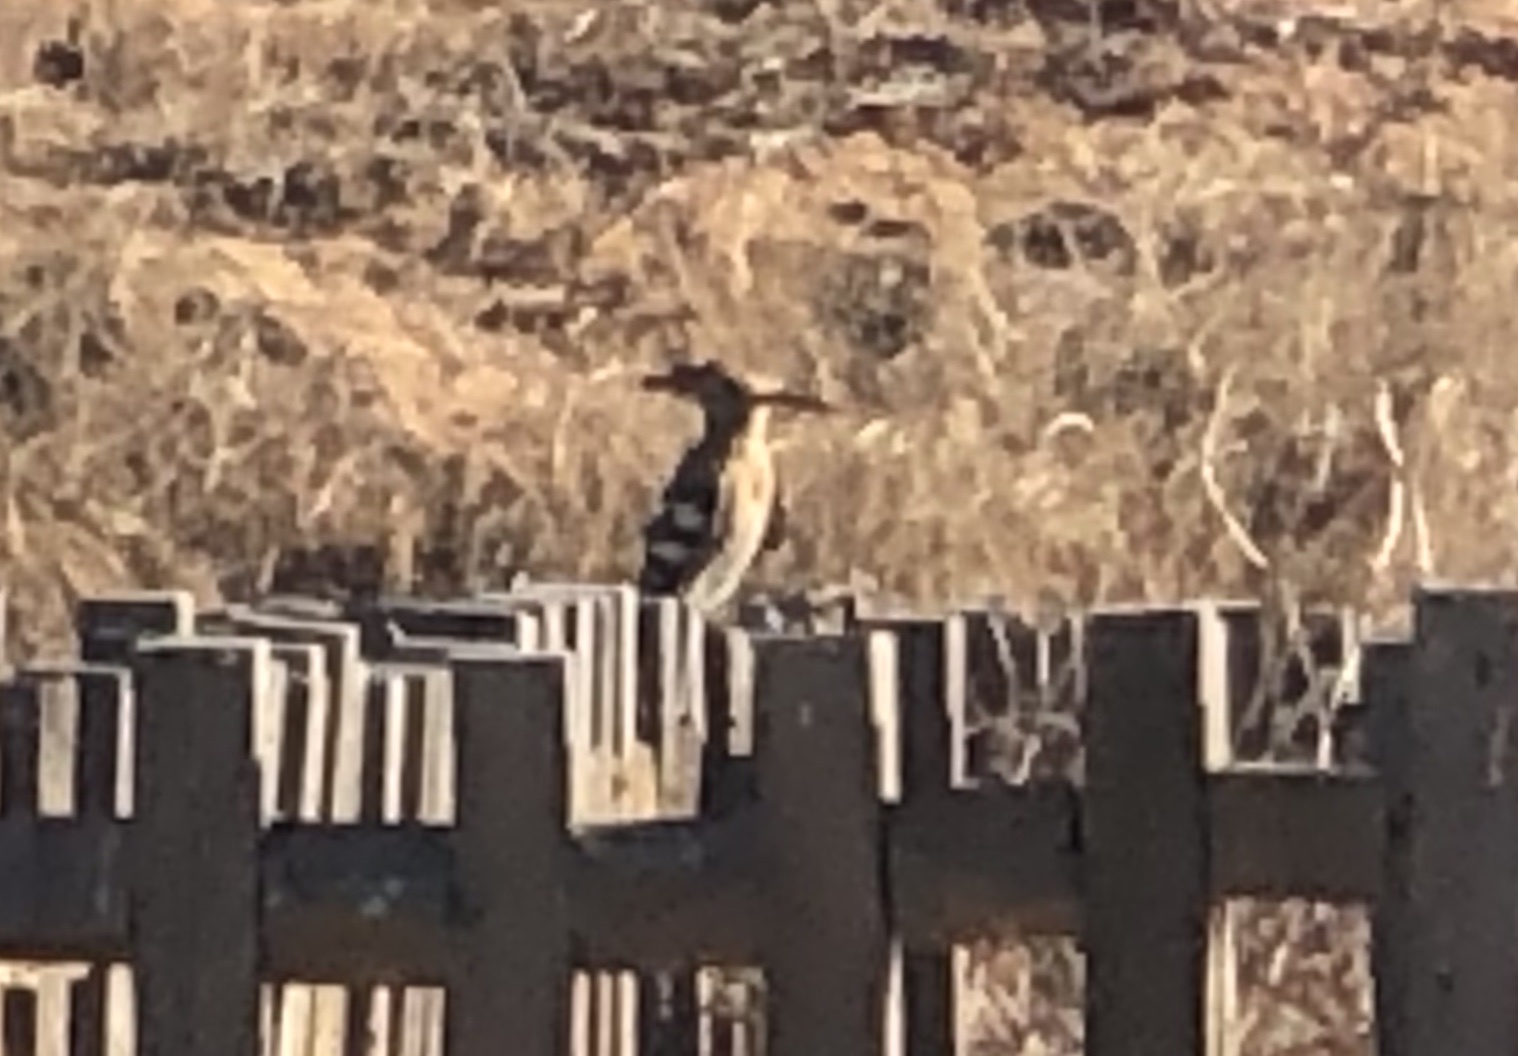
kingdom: Animalia
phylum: Chordata
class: Aves
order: Bucerotiformes
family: Upupidae
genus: Upupa
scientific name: Upupa epops
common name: Eurasian hoopoe
